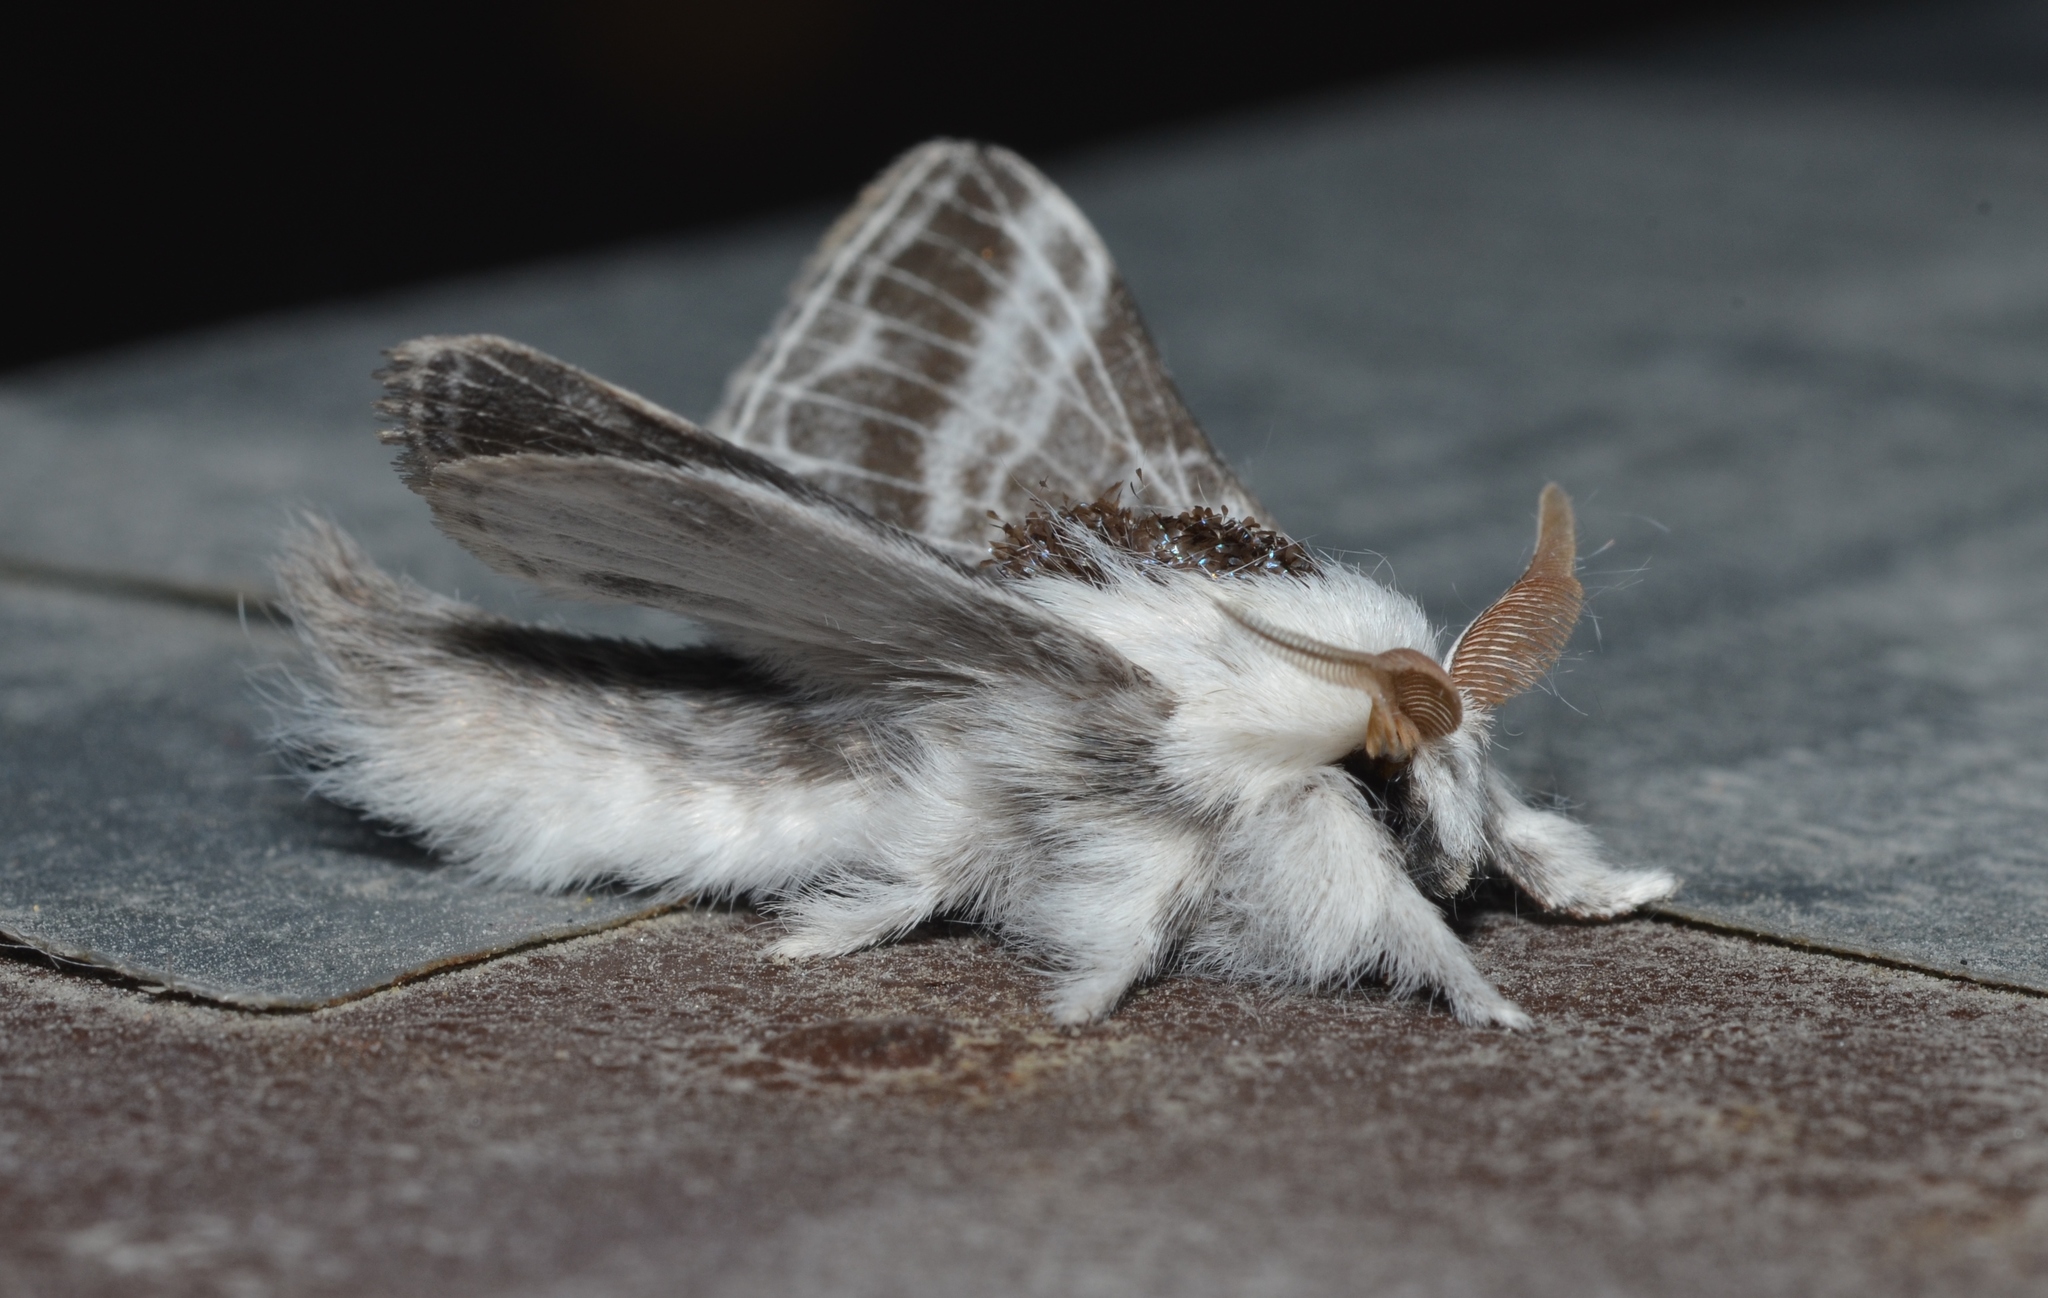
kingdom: Animalia
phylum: Arthropoda
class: Insecta
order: Lepidoptera
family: Lasiocampidae
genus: Tolype
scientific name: Tolype velleda
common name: Large tolype moth
